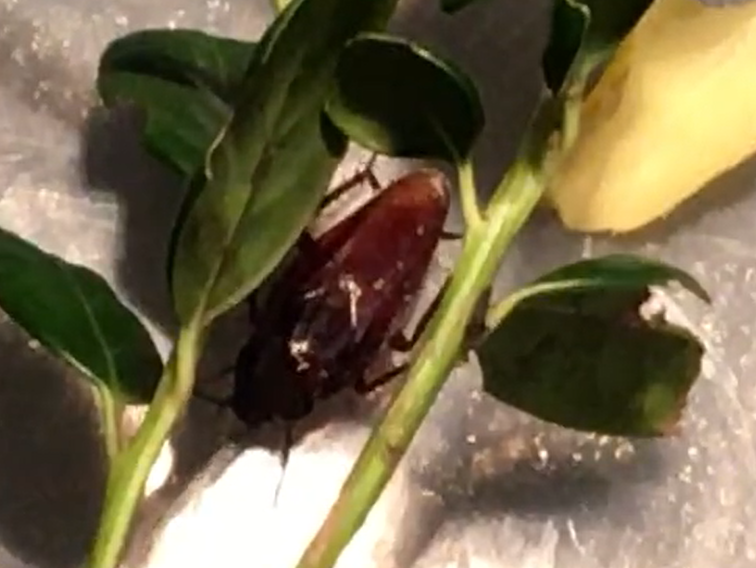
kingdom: Animalia
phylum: Arthropoda
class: Insecta
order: Blattodea
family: Blattidae
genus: Periplaneta
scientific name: Periplaneta fuliginosa
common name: Smokeybrown cockroad
